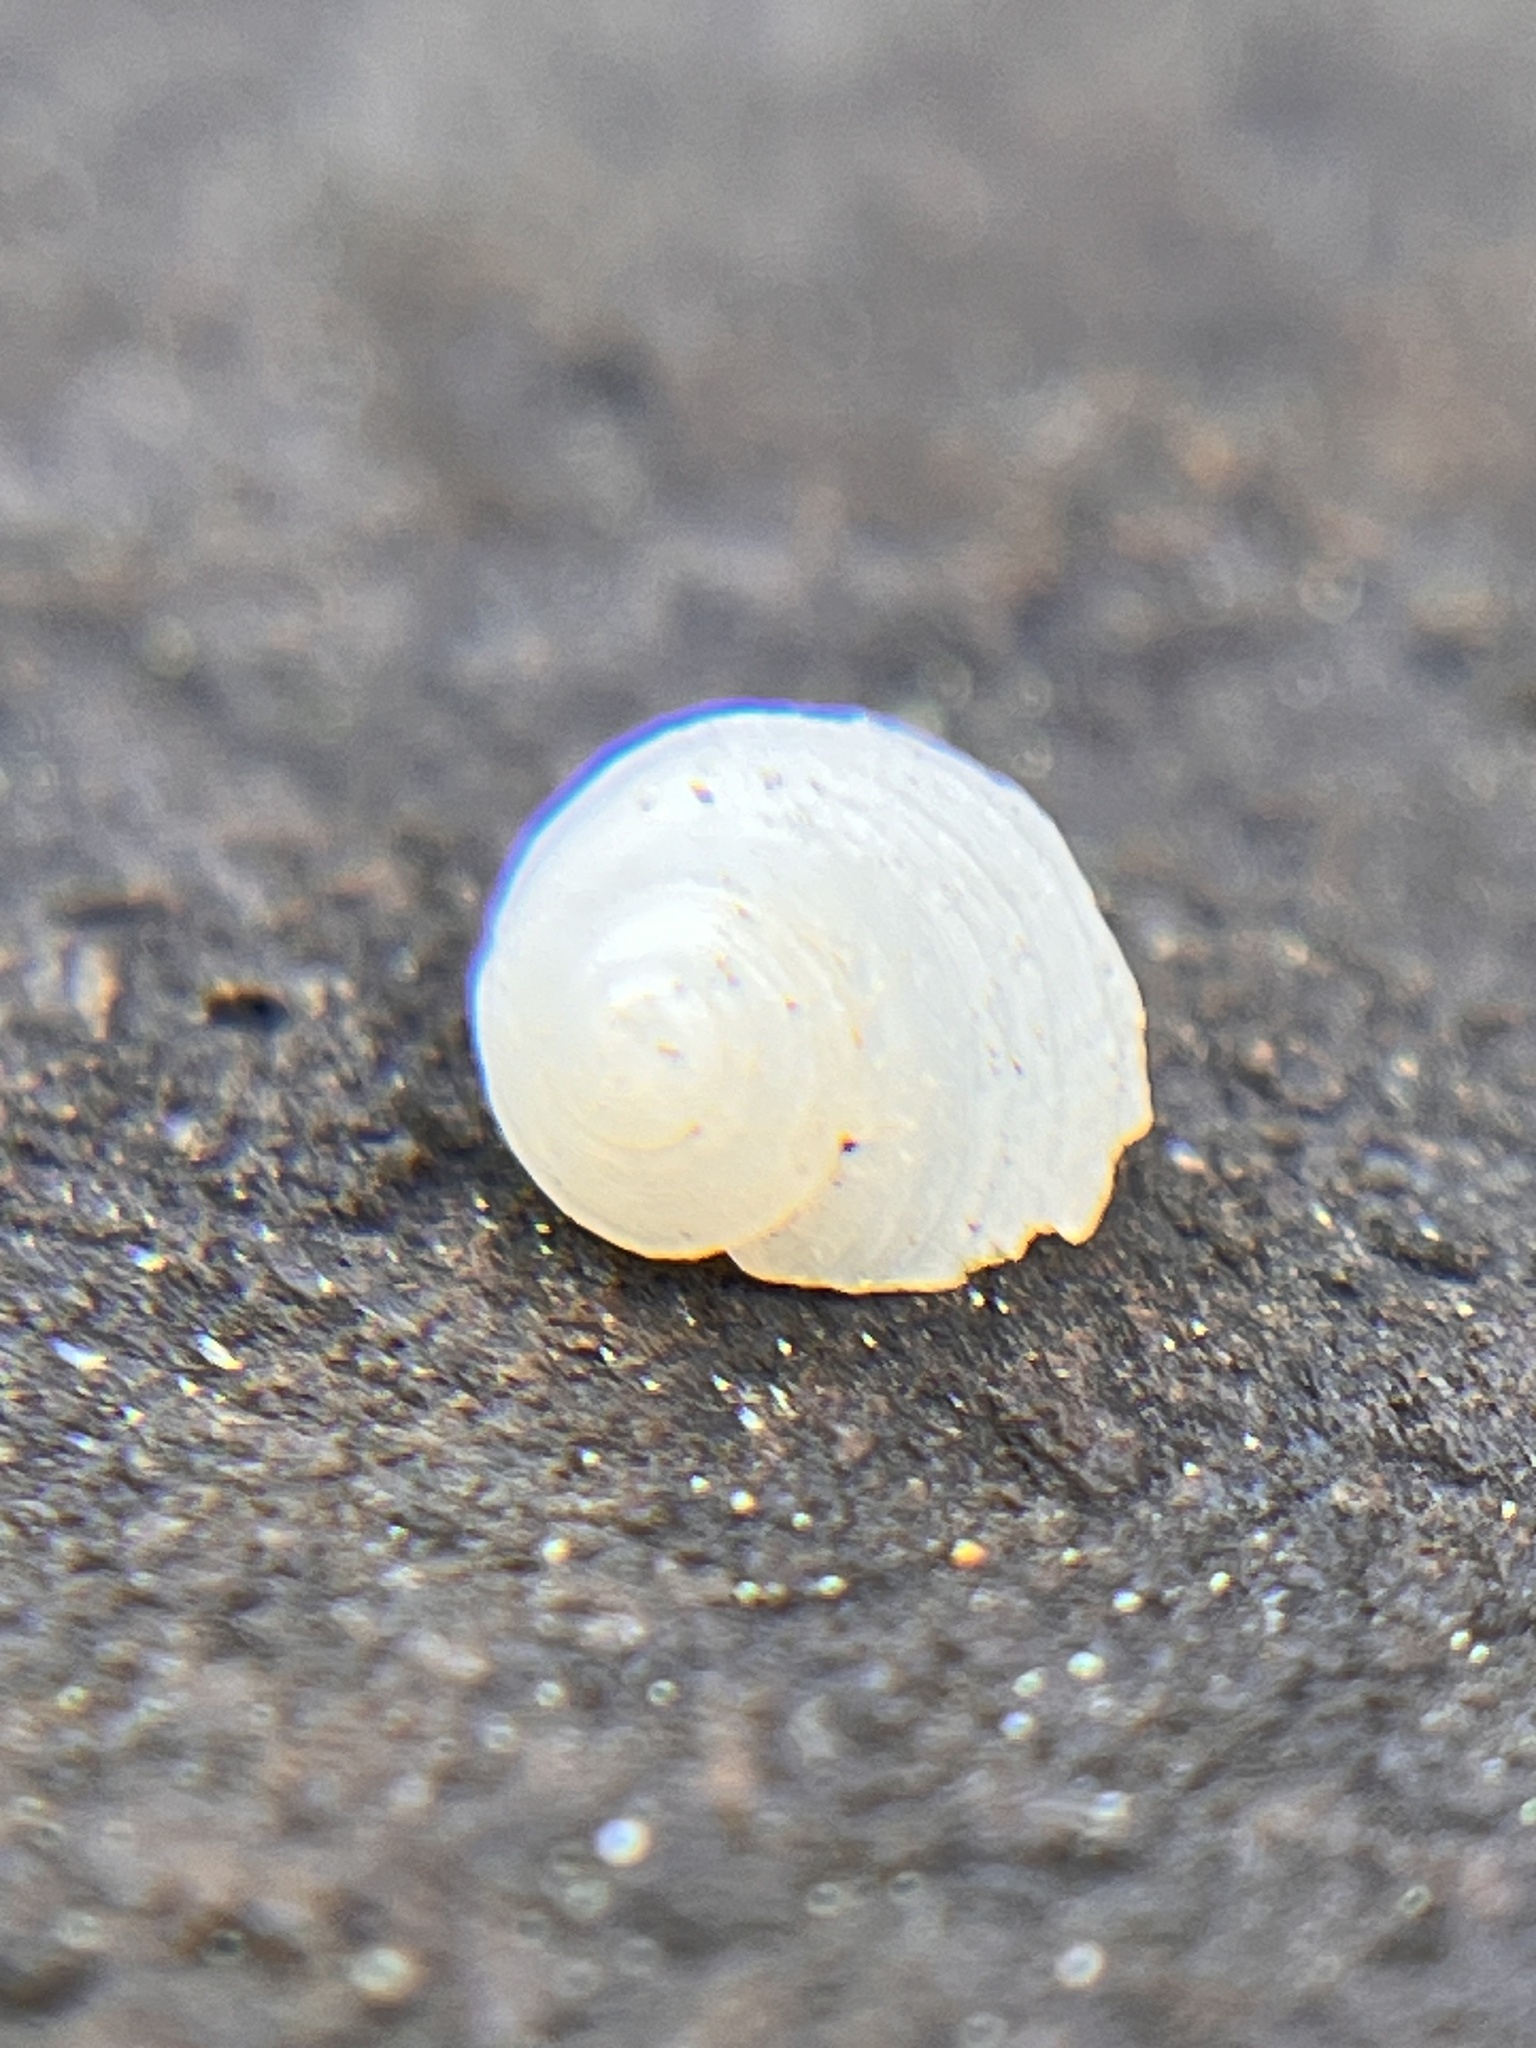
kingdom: Animalia
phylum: Mollusca
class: Gastropoda
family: Planaxidae
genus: Fossarus
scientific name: Fossarus multicostatus
